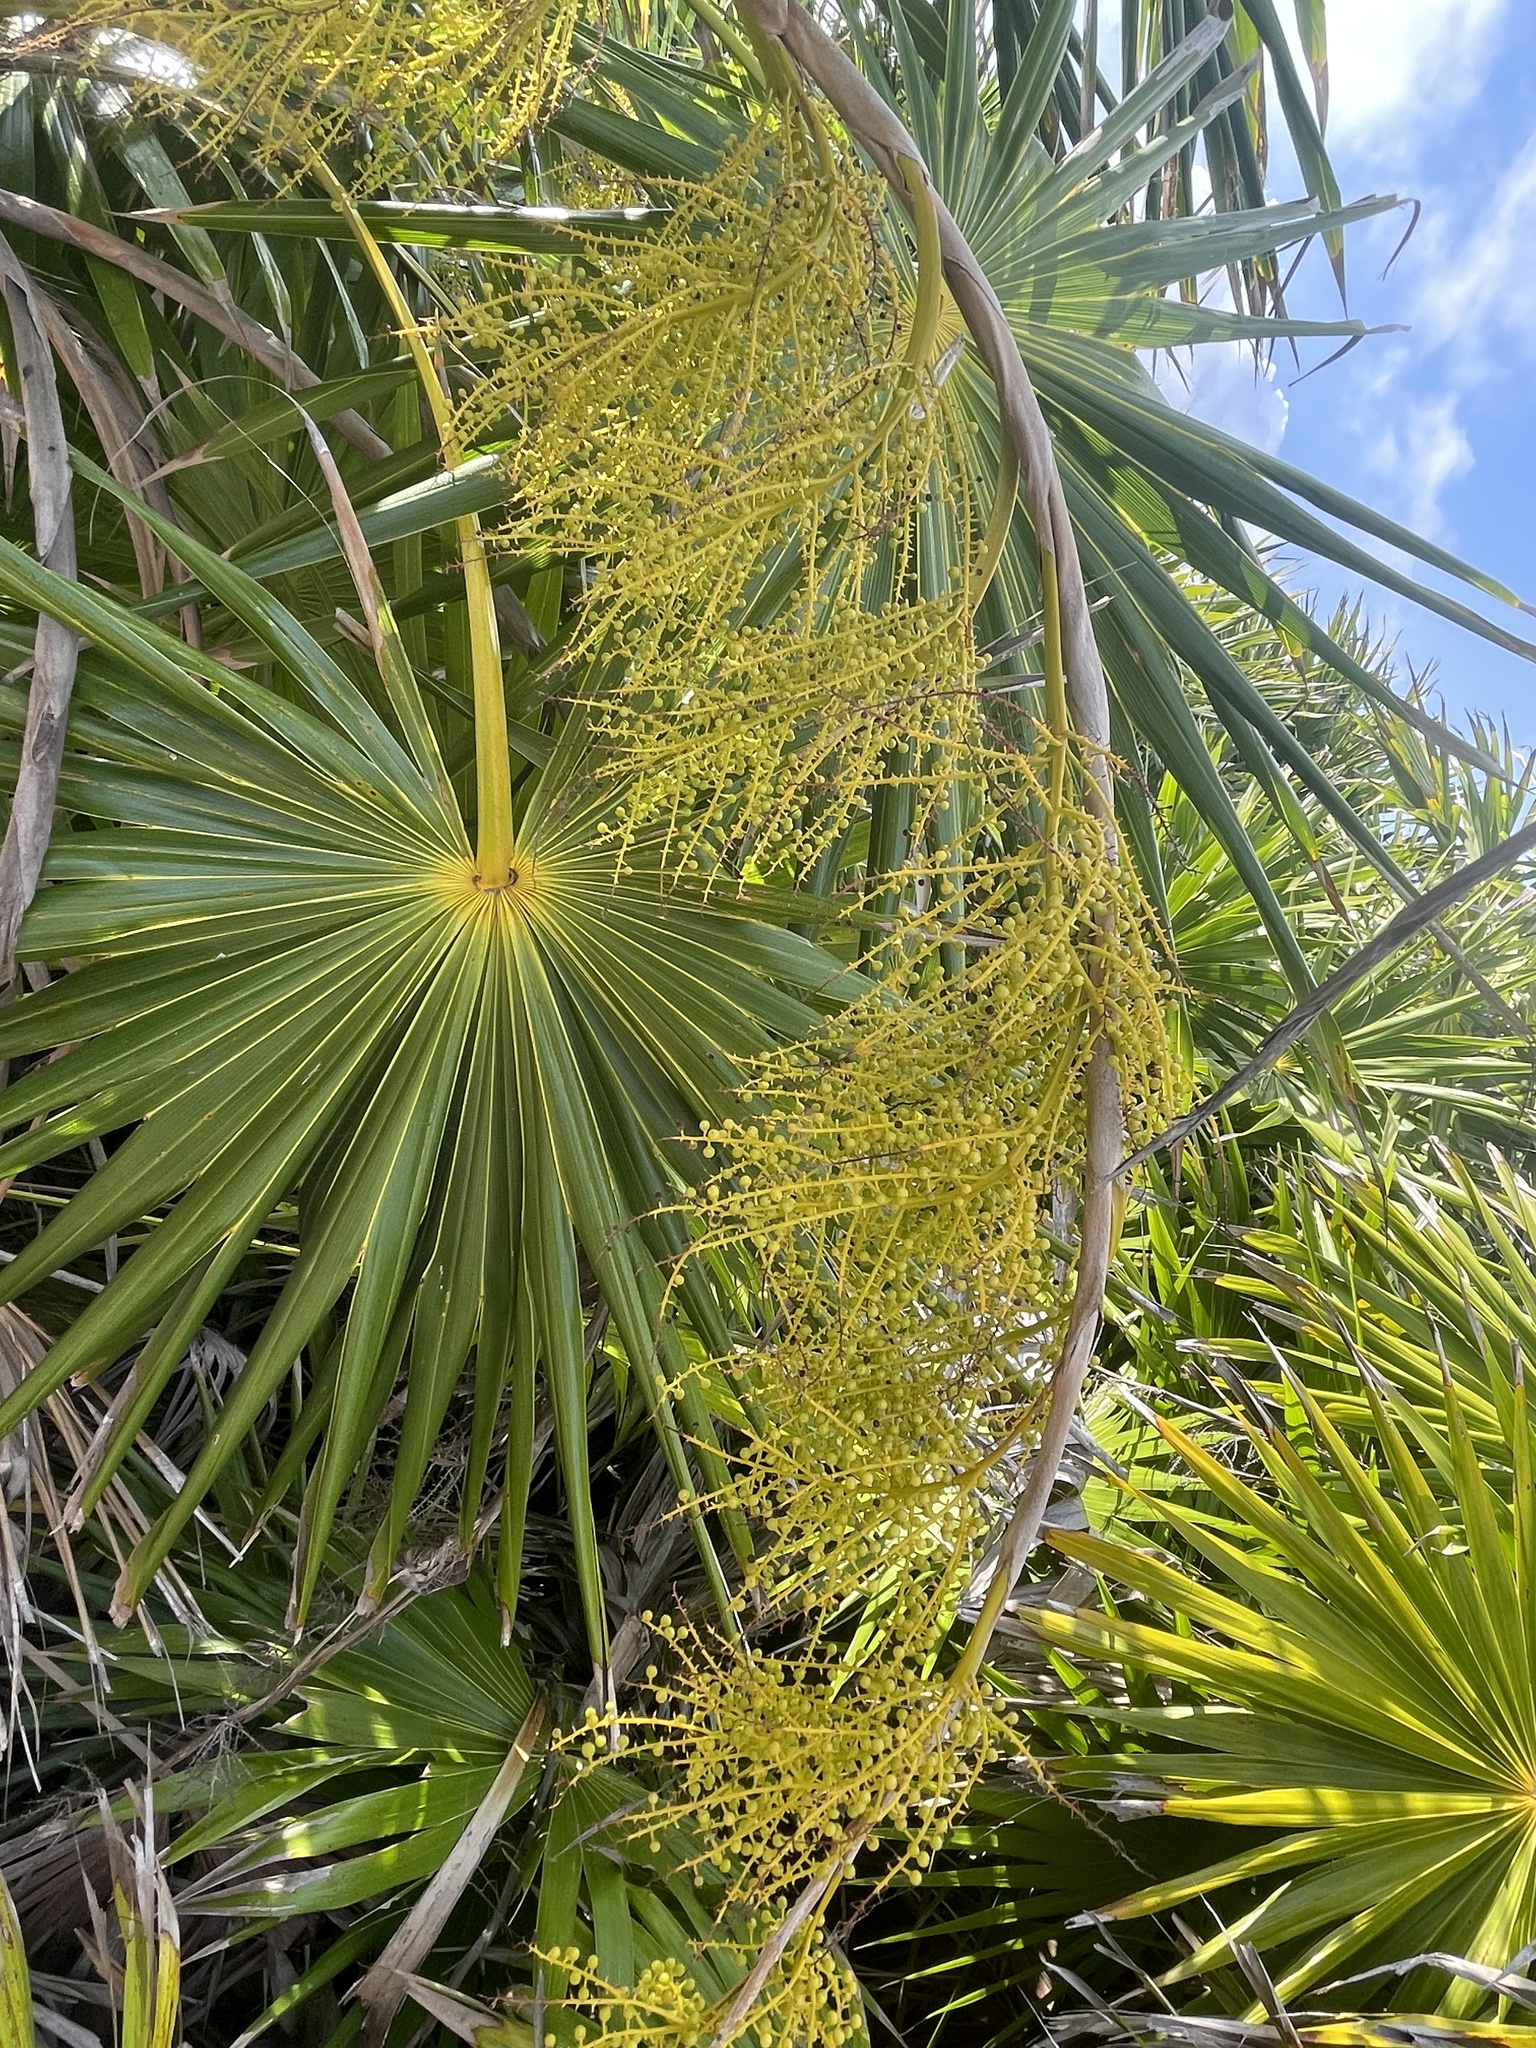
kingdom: Plantae
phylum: Tracheophyta
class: Liliopsida
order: Arecales
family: Arecaceae
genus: Thrinax
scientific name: Thrinax radiata
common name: Florida thatch
